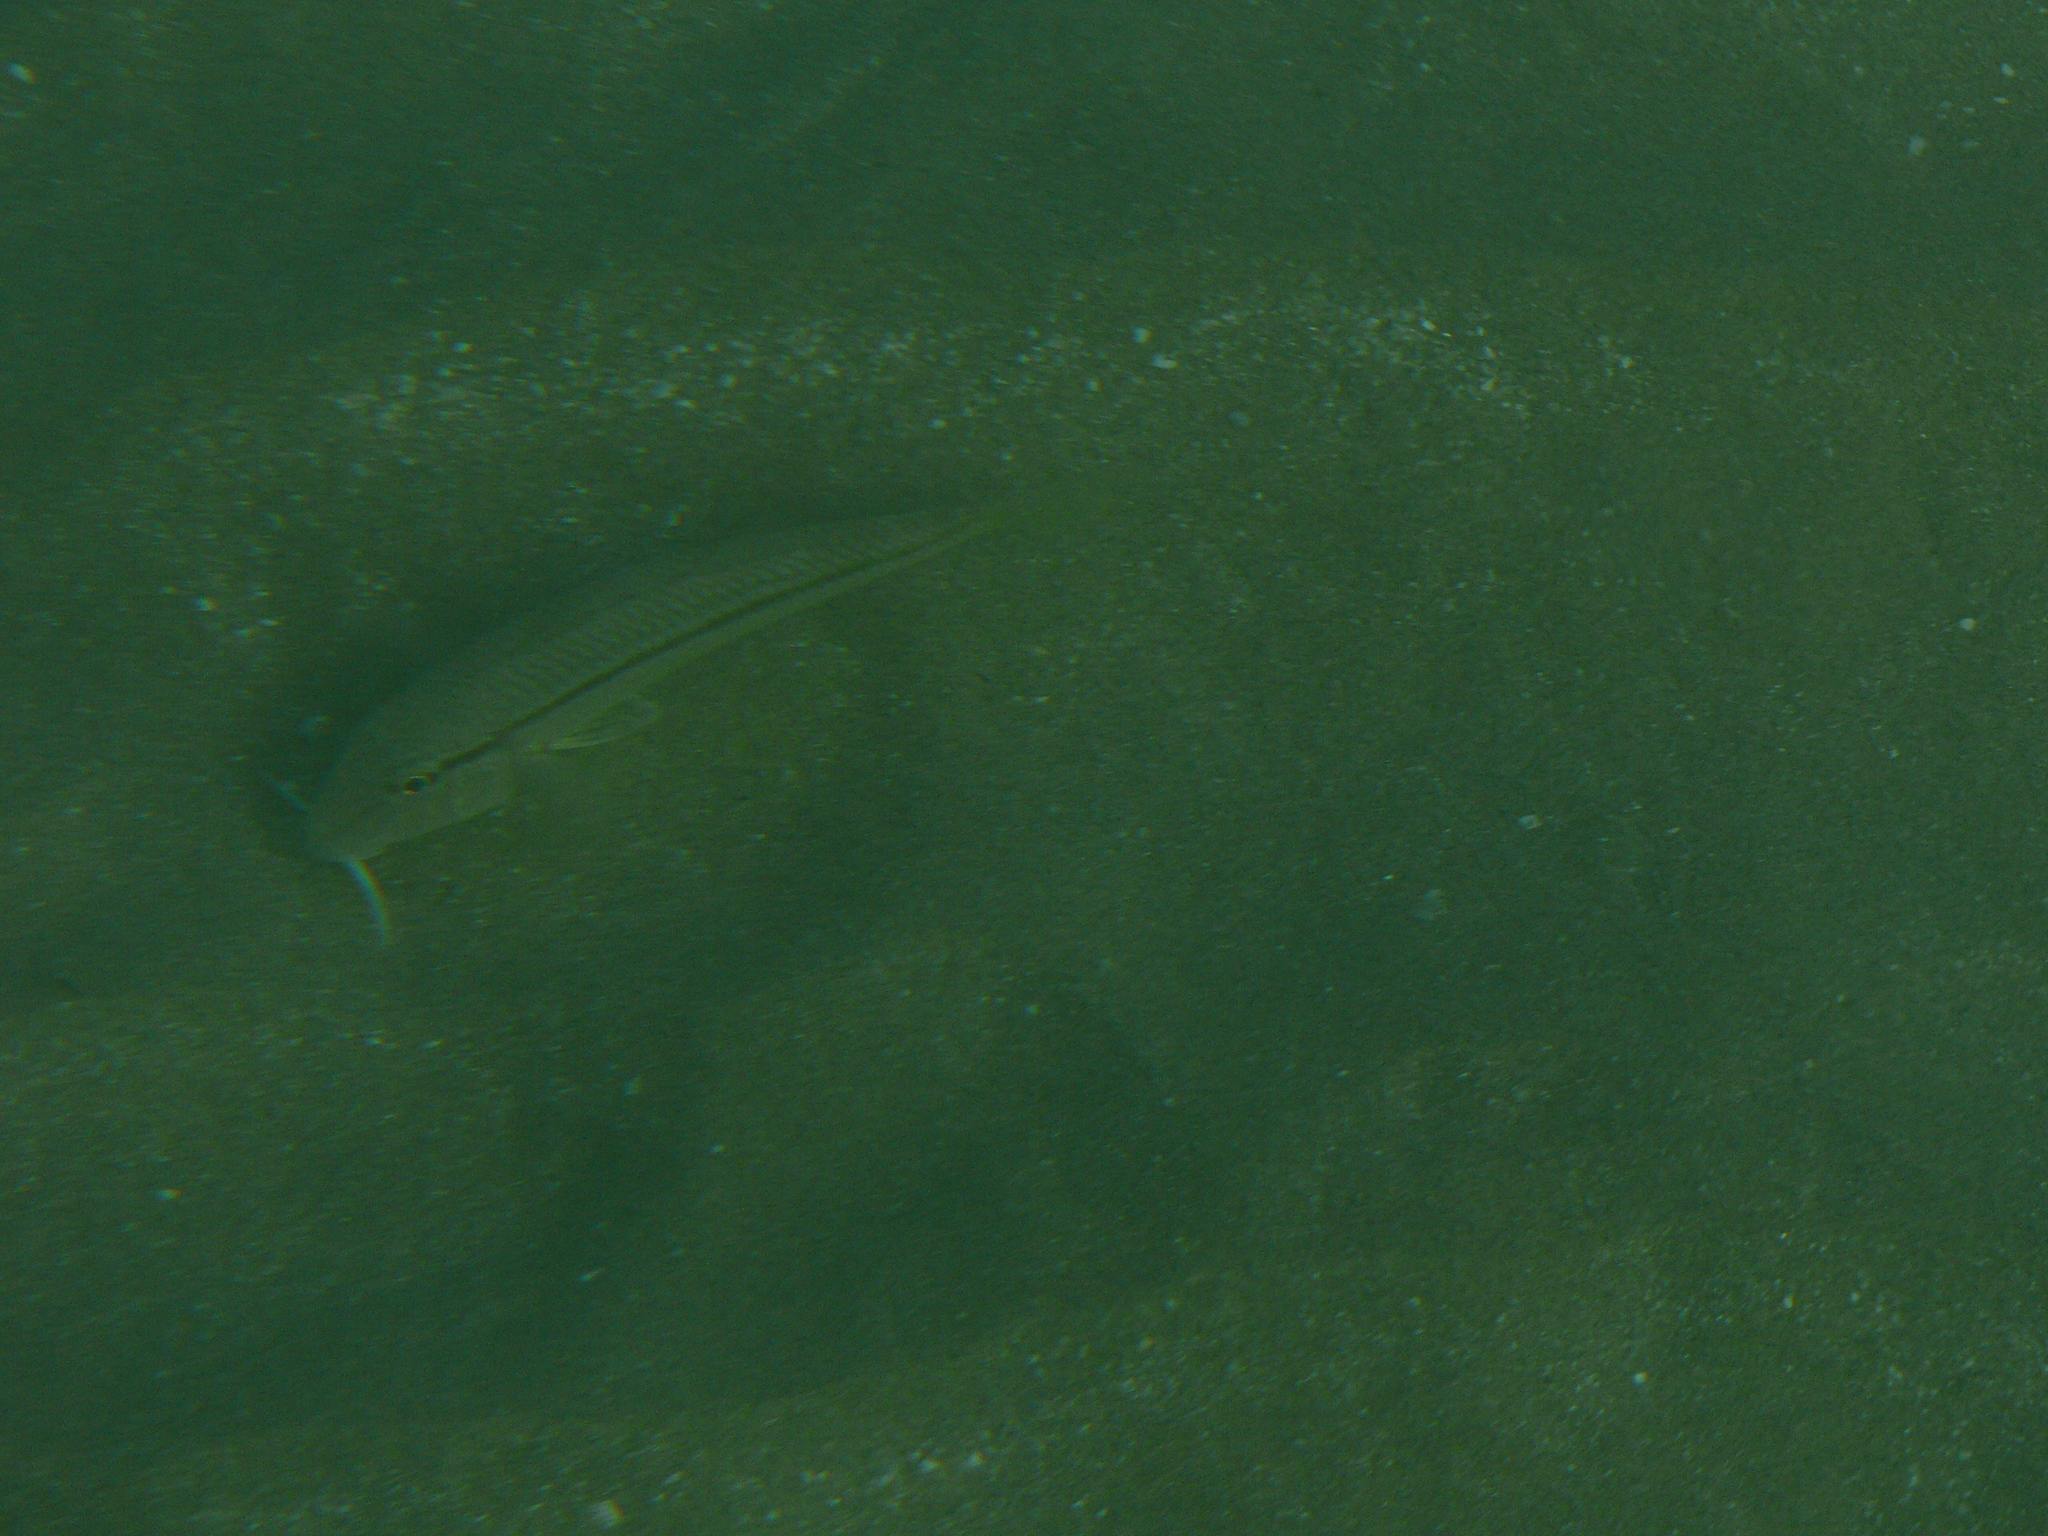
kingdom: Animalia
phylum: Chordata
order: Perciformes
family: Mullidae
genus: Mullus
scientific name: Mullus
